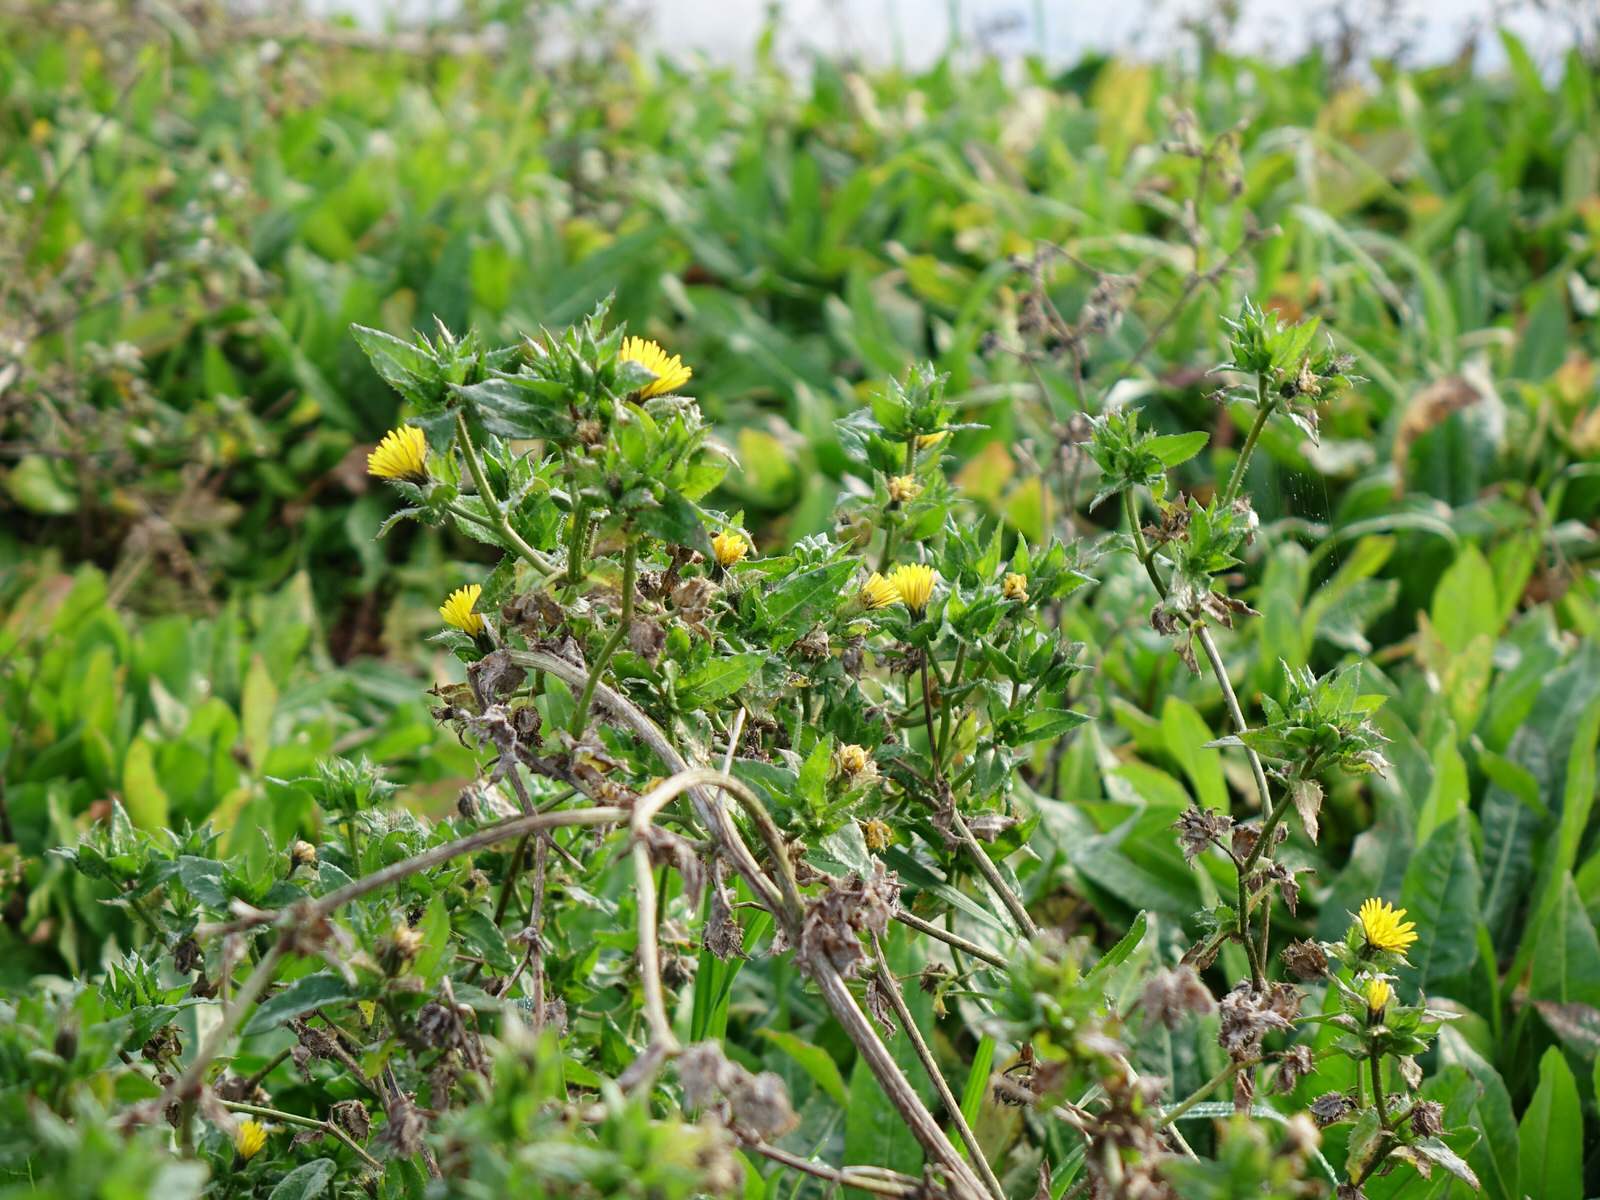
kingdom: Plantae
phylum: Tracheophyta
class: Magnoliopsida
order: Asterales
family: Asteraceae
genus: Helminthotheca
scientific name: Helminthotheca echioides
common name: Ox-tongue
